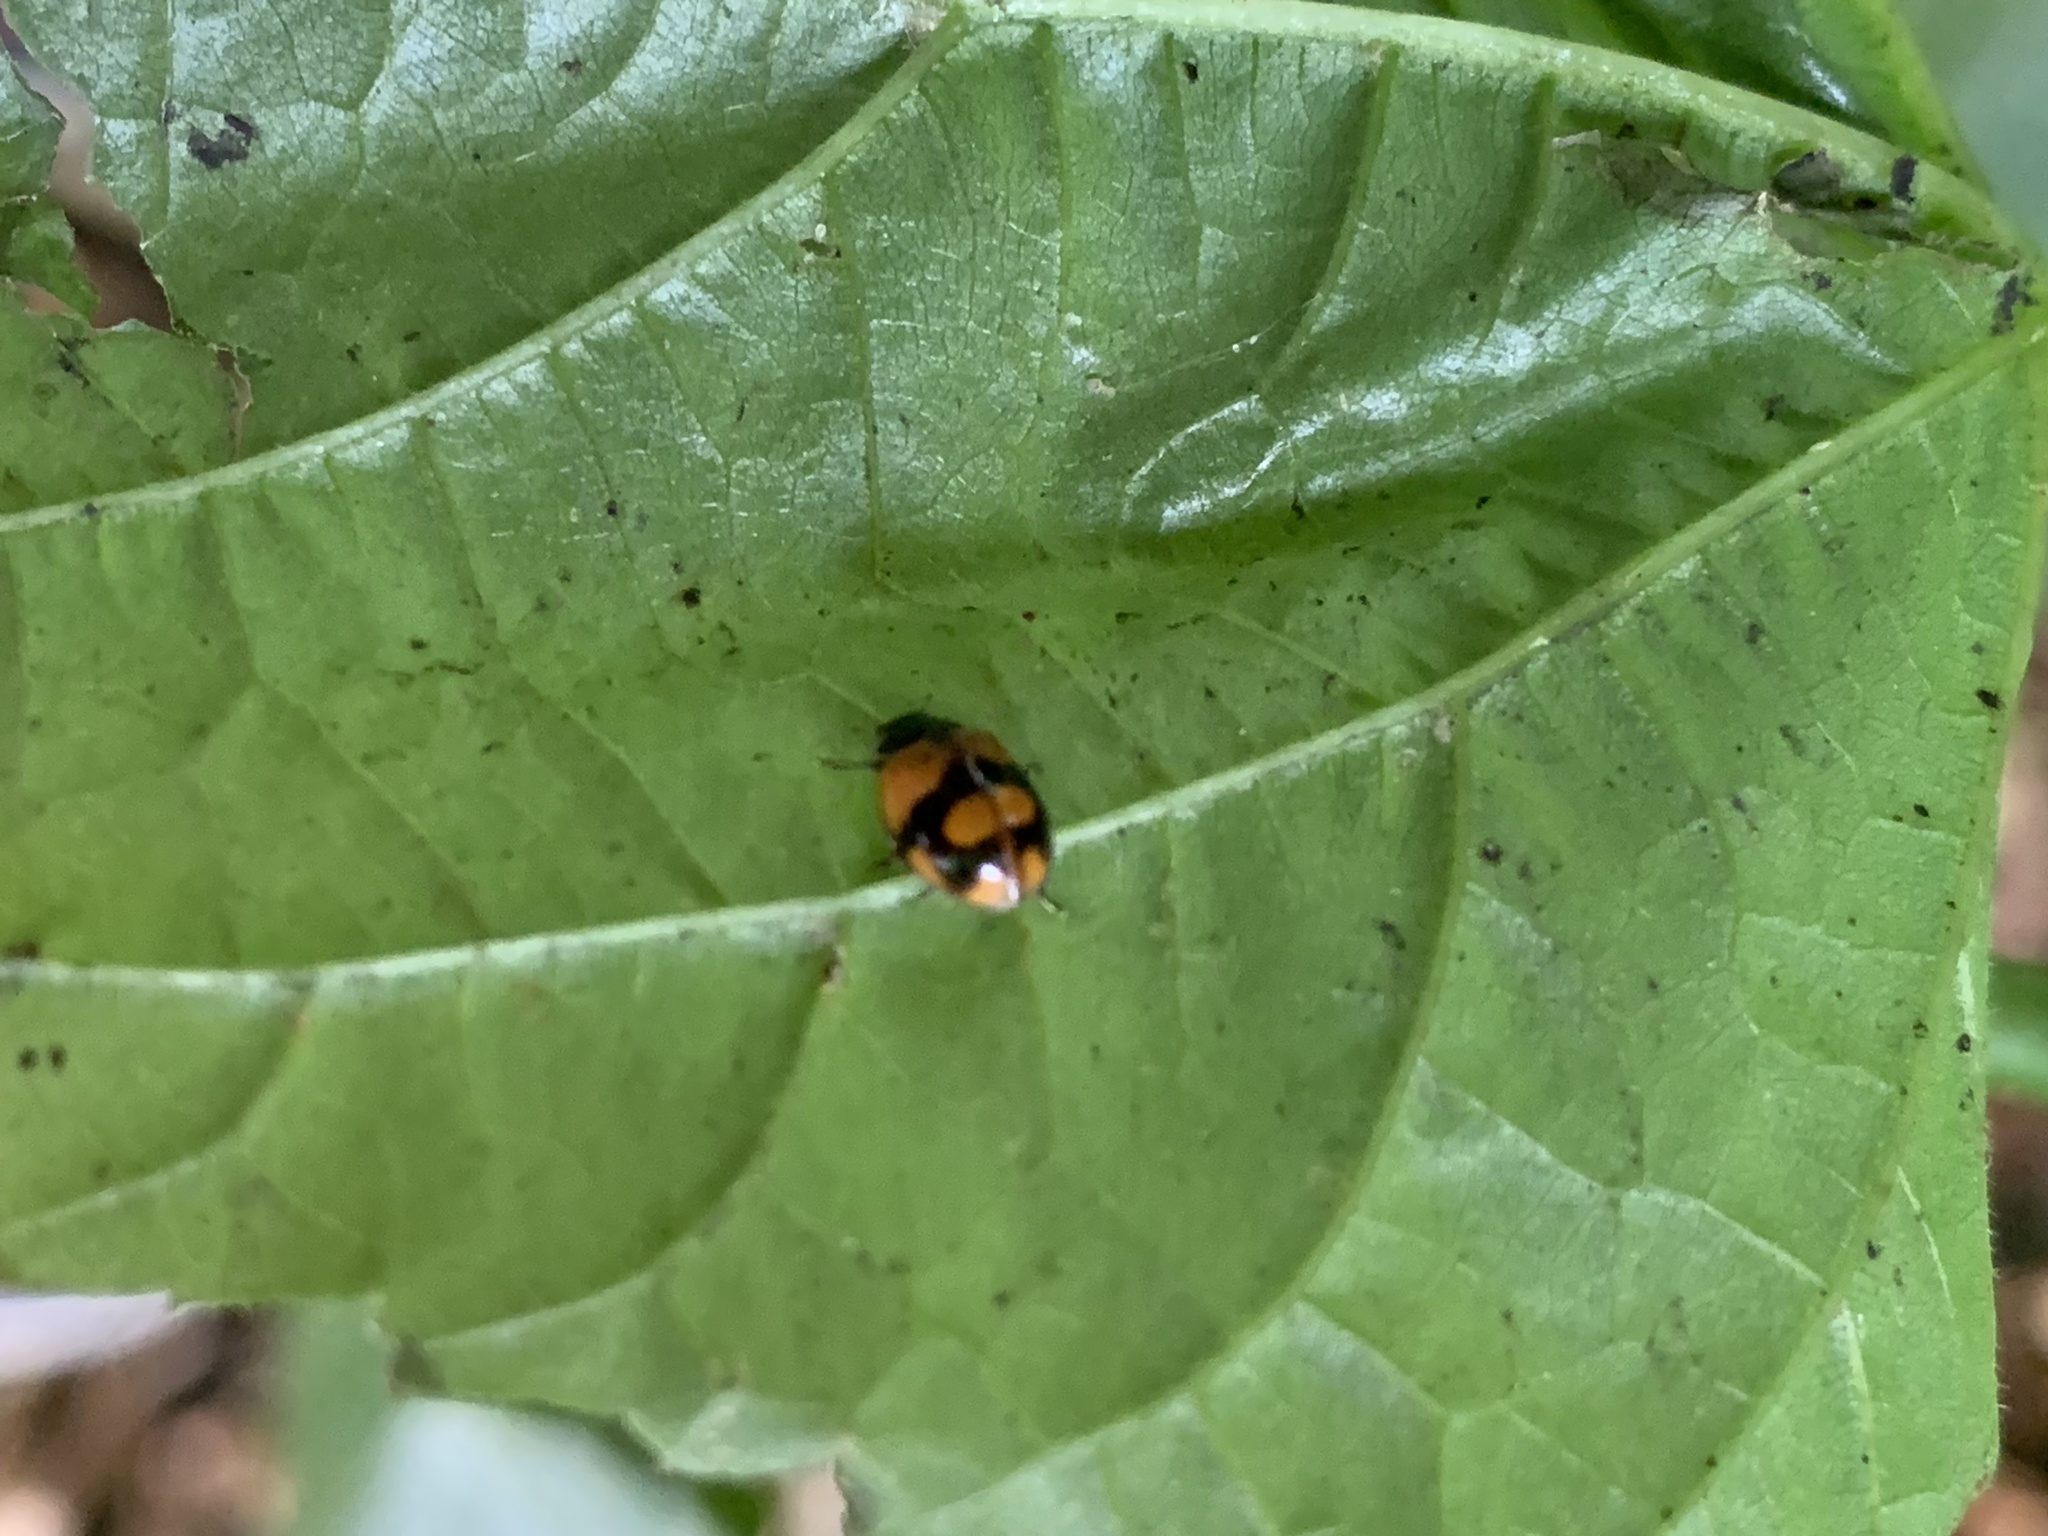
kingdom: Animalia
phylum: Arthropoda
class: Insecta
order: Coleoptera
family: Coccinellidae
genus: Adalia
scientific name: Adalia bipunctata
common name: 2-spot ladybird
